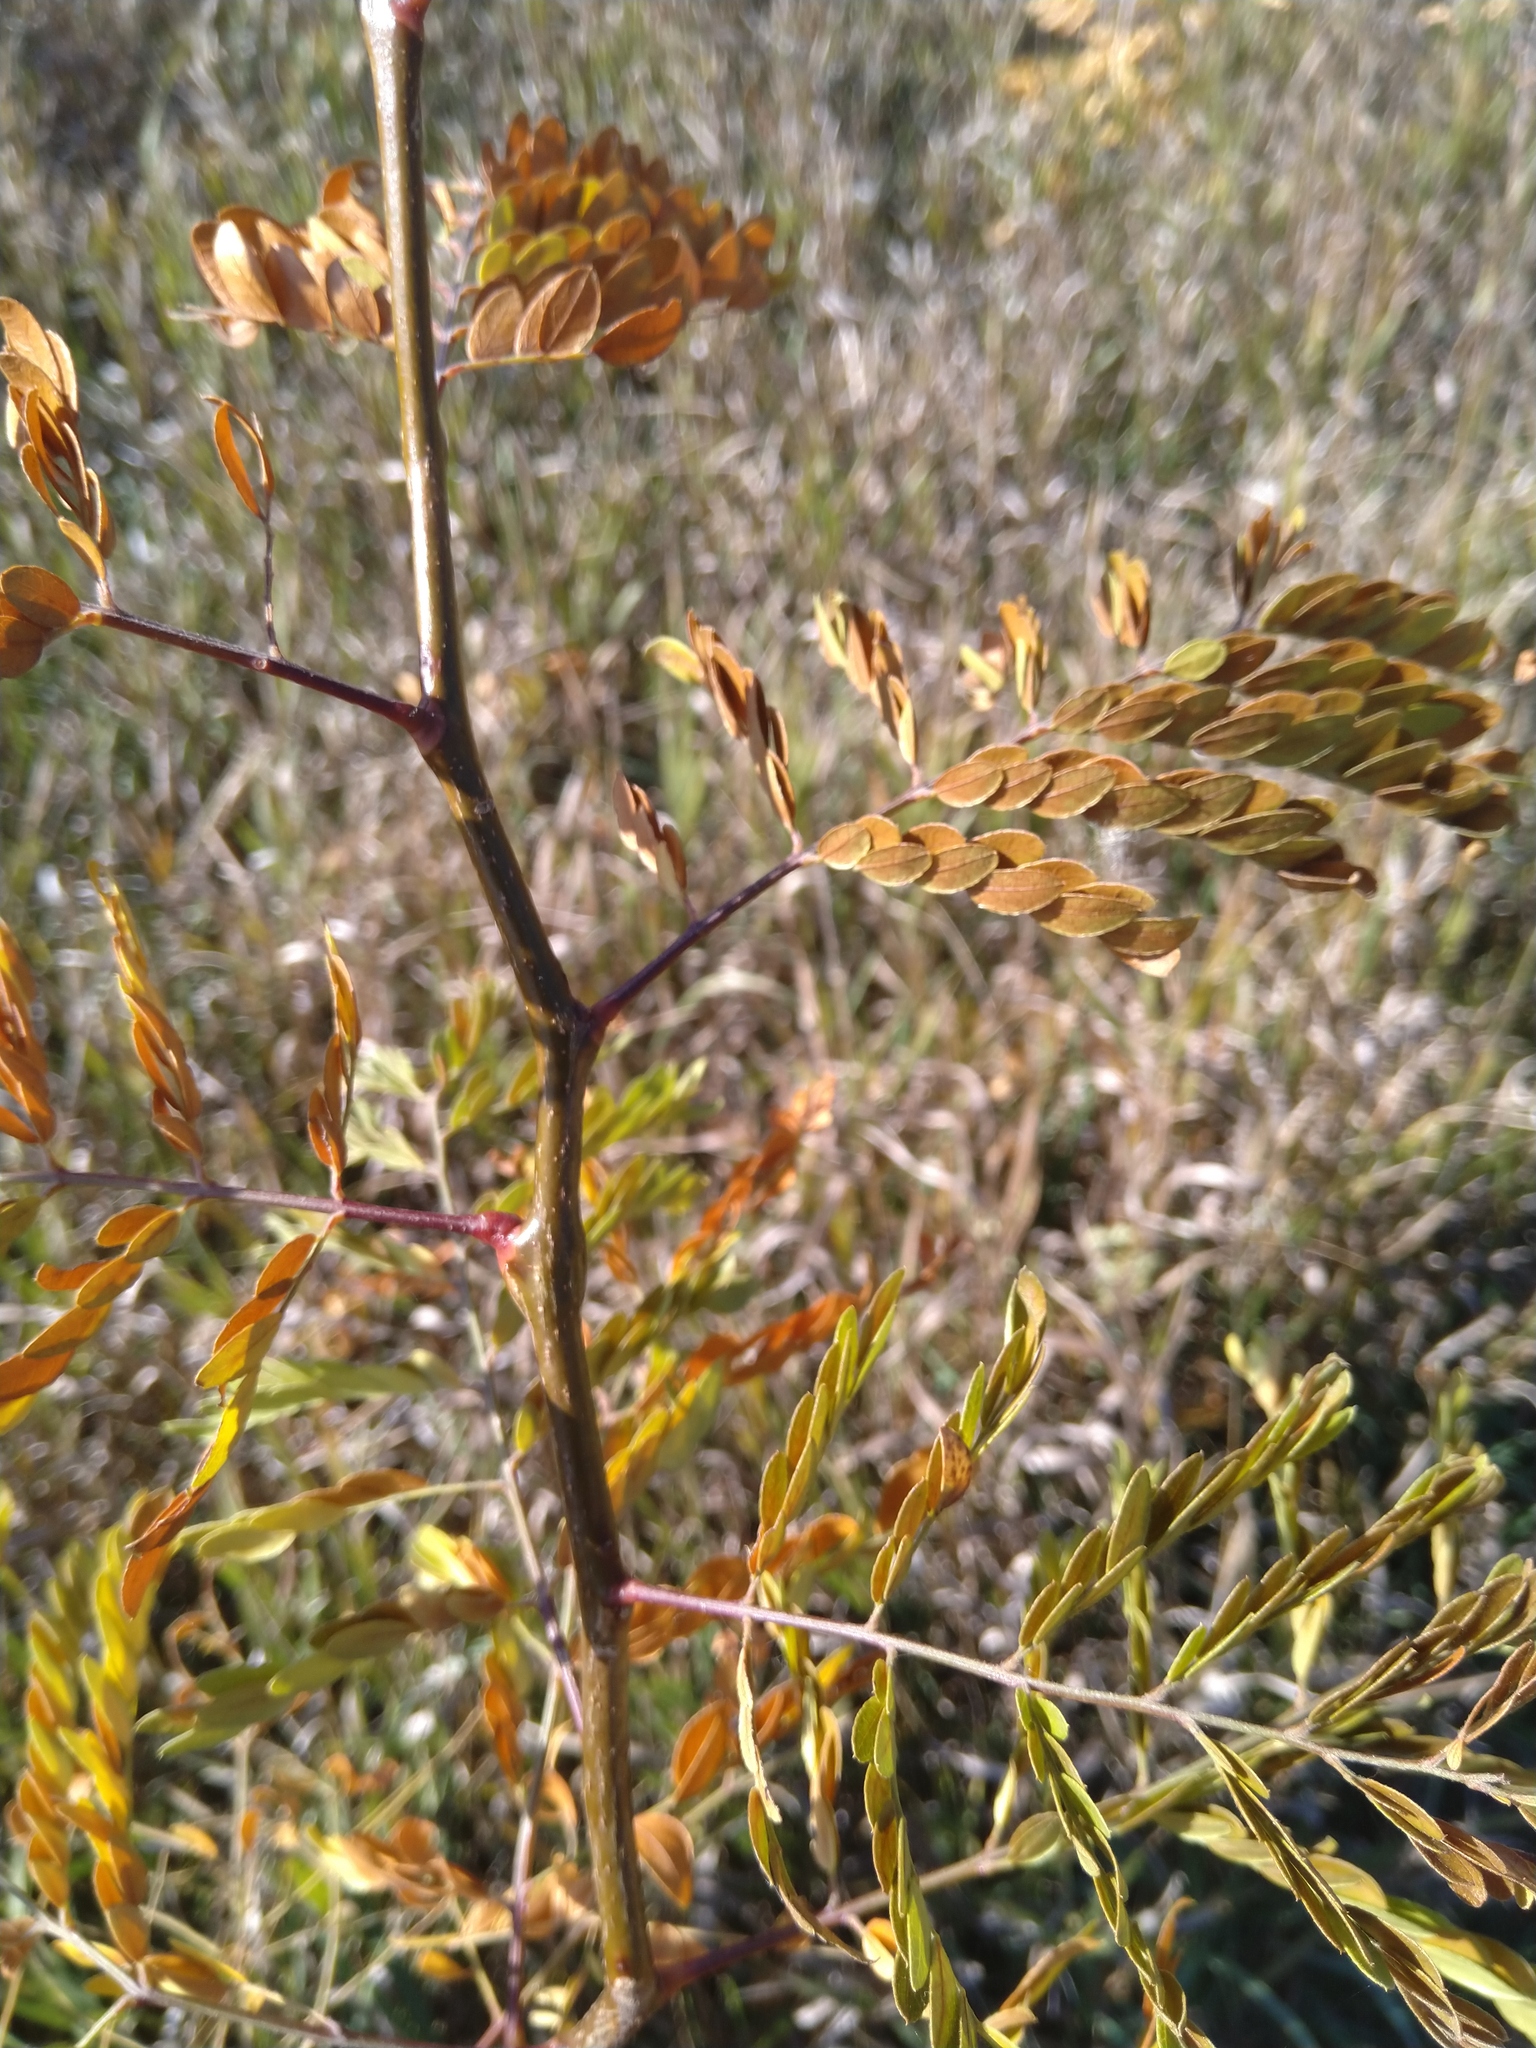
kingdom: Plantae
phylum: Tracheophyta
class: Magnoliopsida
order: Fabales
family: Fabaceae
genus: Gleditsia
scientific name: Gleditsia triacanthos
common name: Common honeylocust
